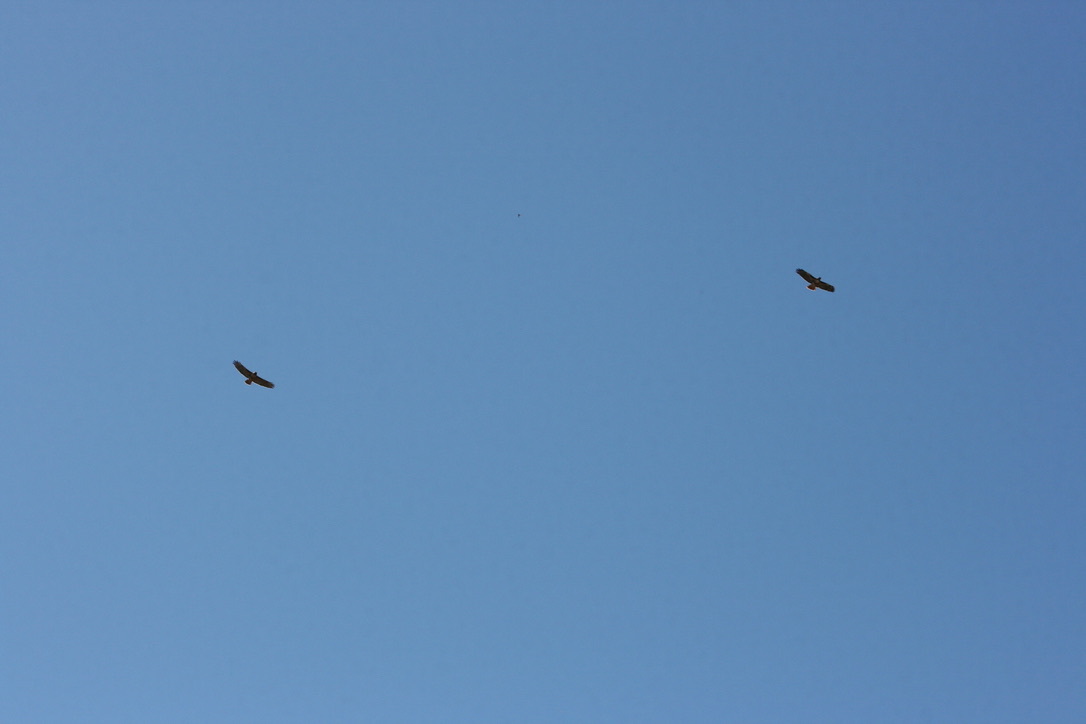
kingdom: Animalia
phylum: Chordata
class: Aves
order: Accipitriformes
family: Accipitridae
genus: Buteo
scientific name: Buteo jamaicensis
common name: Red-tailed hawk
